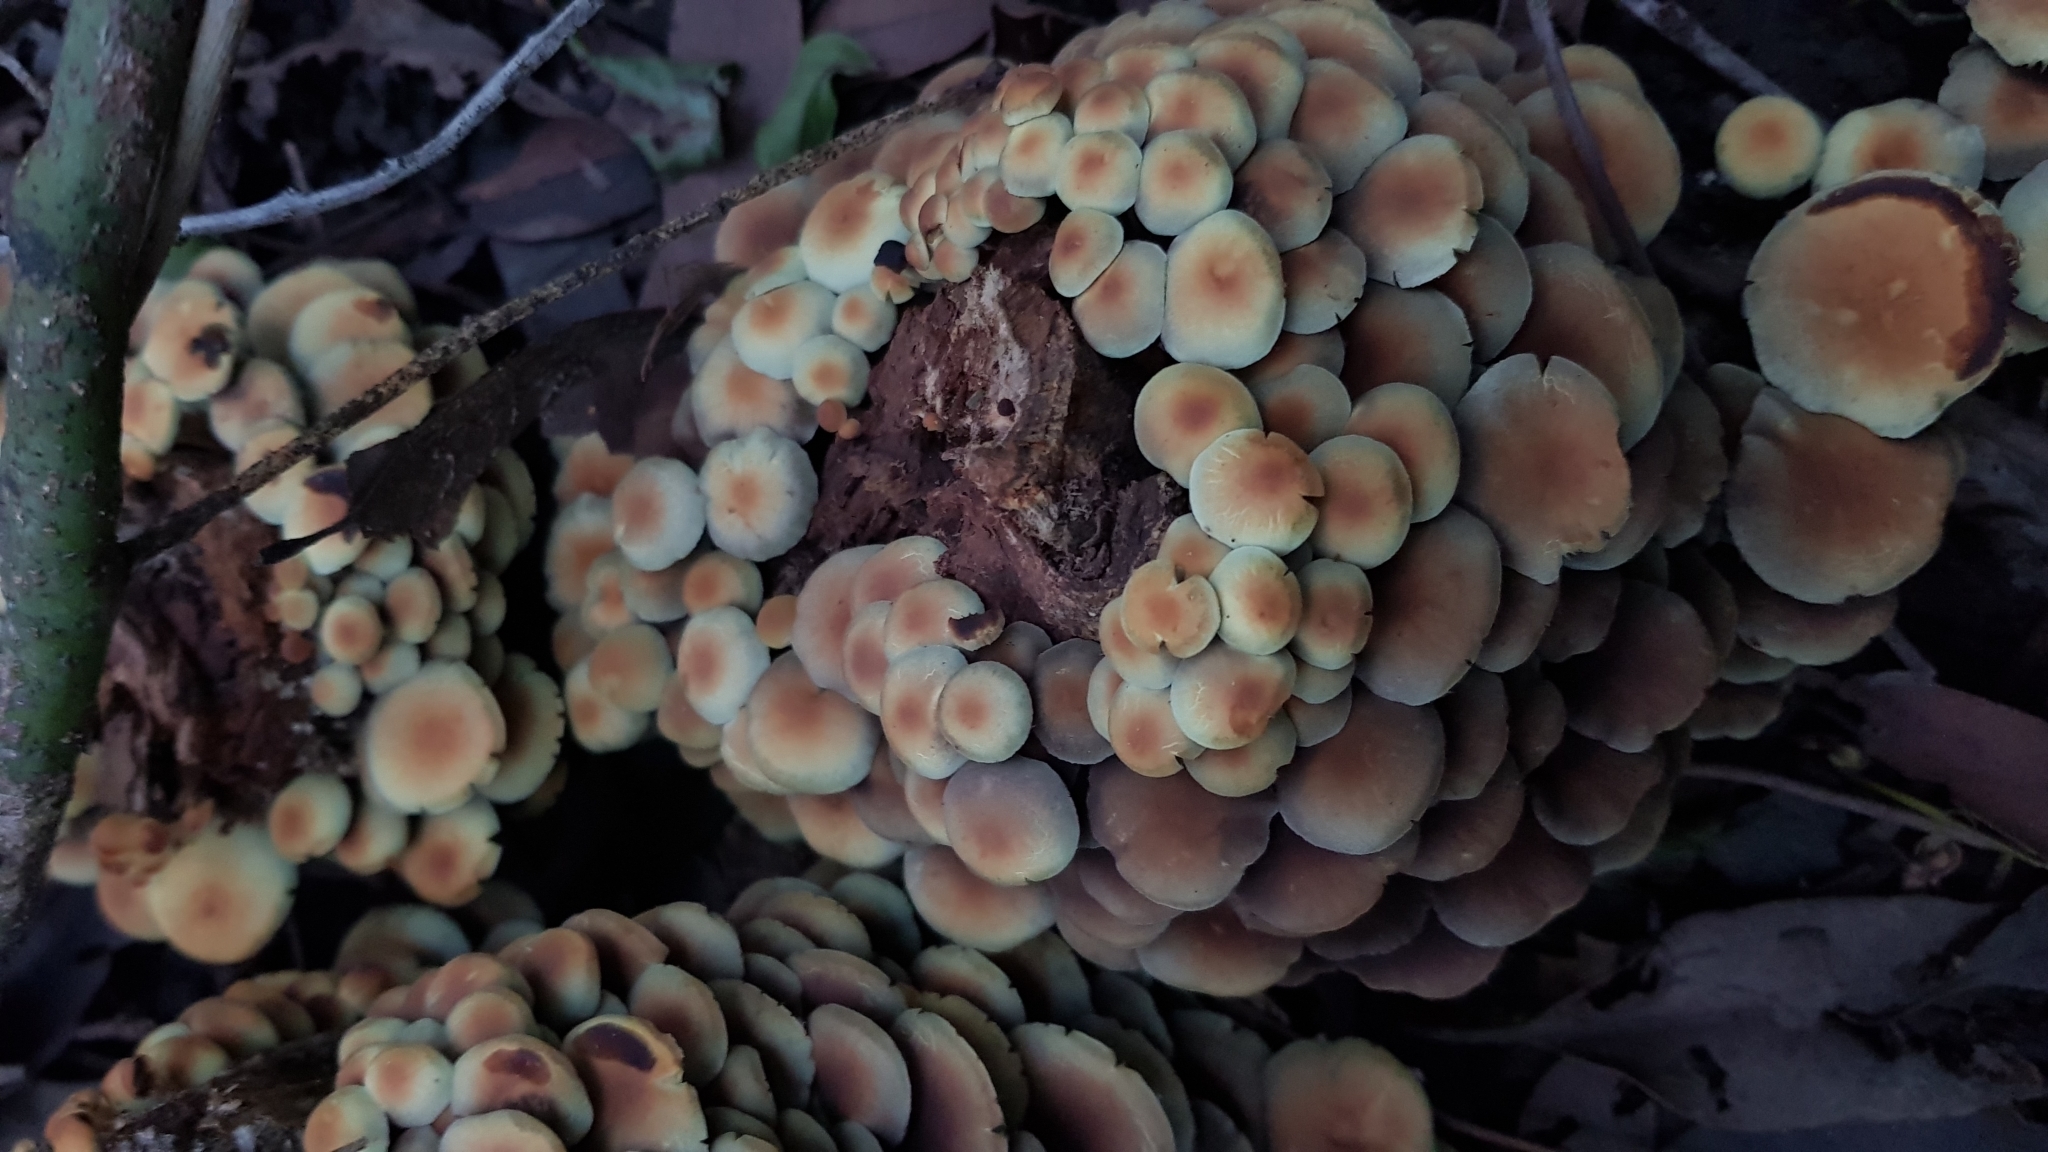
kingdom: Fungi
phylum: Basidiomycota
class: Agaricomycetes
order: Agaricales
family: Strophariaceae
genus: Hypholoma
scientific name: Hypholoma fasciculare
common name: Sulphur tuft
